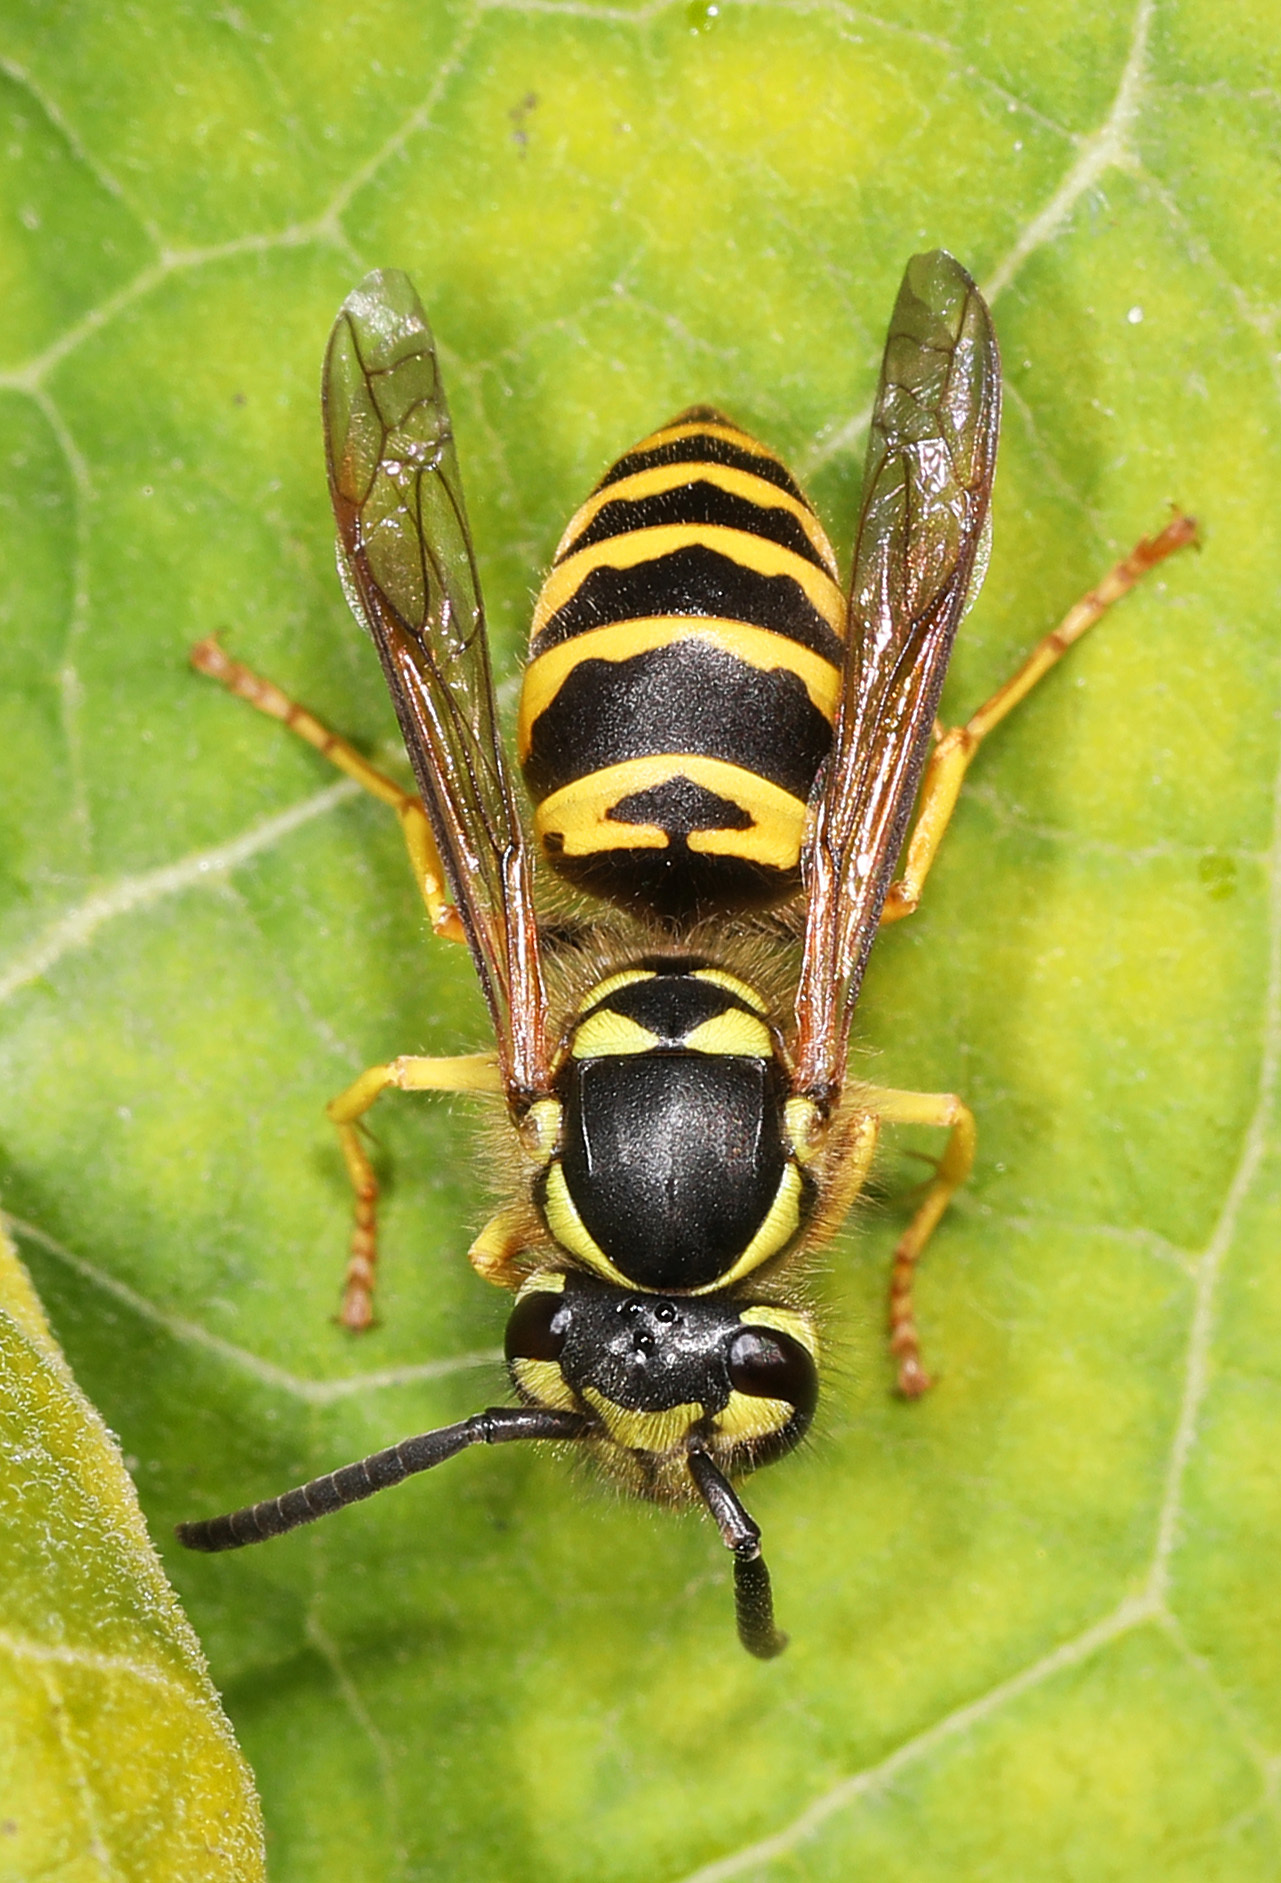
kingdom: Animalia
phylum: Arthropoda
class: Insecta
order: Hymenoptera
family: Vespidae
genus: Vespula
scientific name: Vespula maculifrons
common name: Eastern yellowjacket
